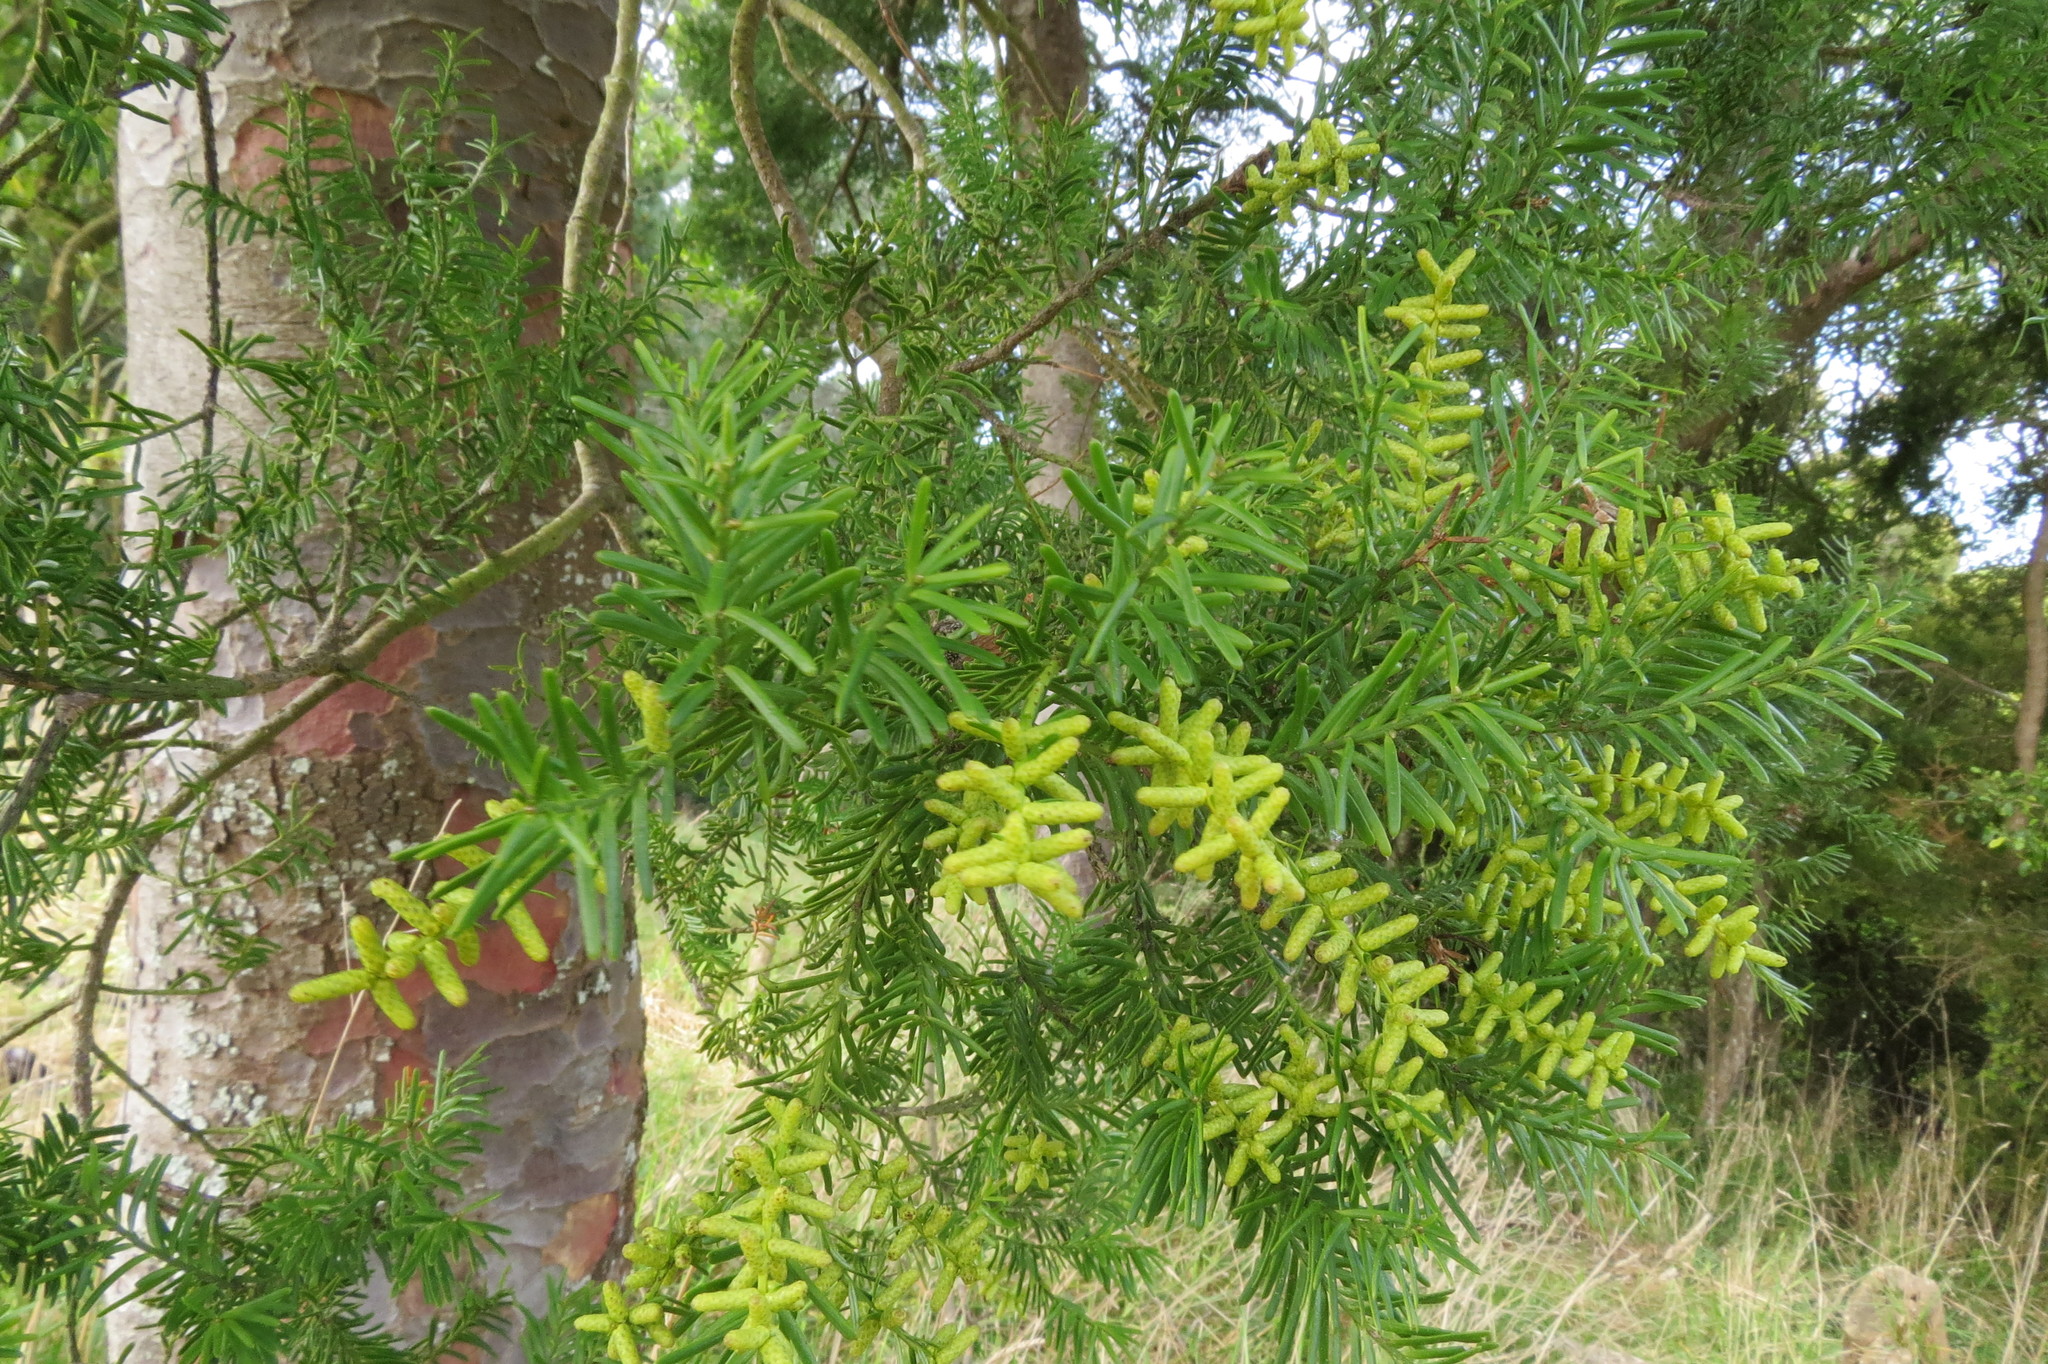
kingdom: Plantae
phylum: Tracheophyta
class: Pinopsida
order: Pinales
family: Podocarpaceae
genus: Prumnopitys
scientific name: Prumnopitys taxifolia
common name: Matai
